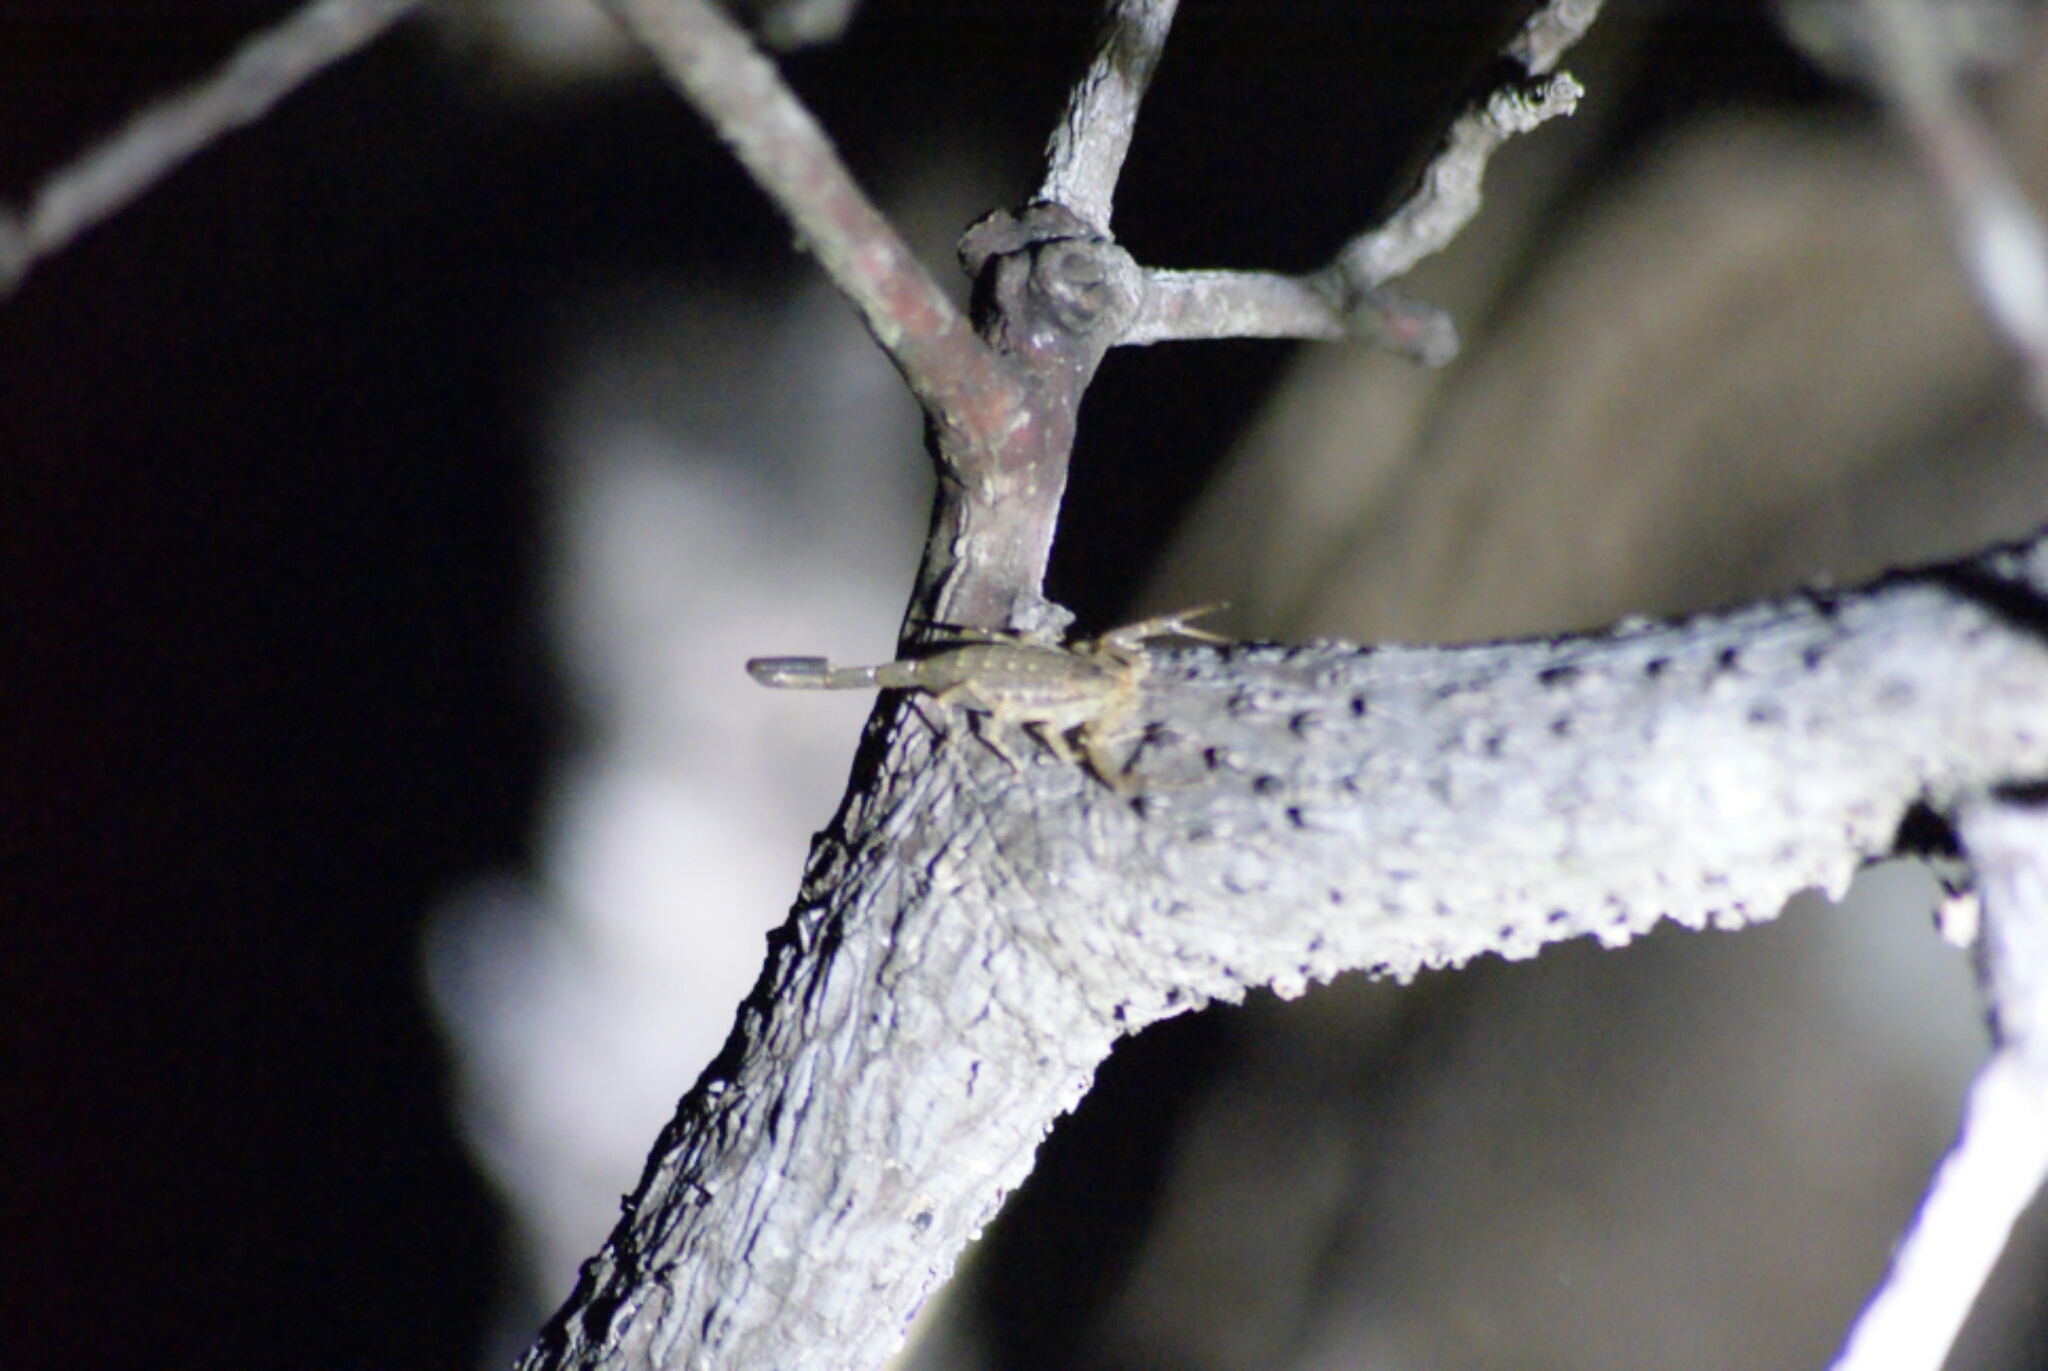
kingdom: Animalia
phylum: Arthropoda
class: Arachnida
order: Scorpiones
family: Buthidae
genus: Centruroides
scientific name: Centruroides schmidti
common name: Scorpions
